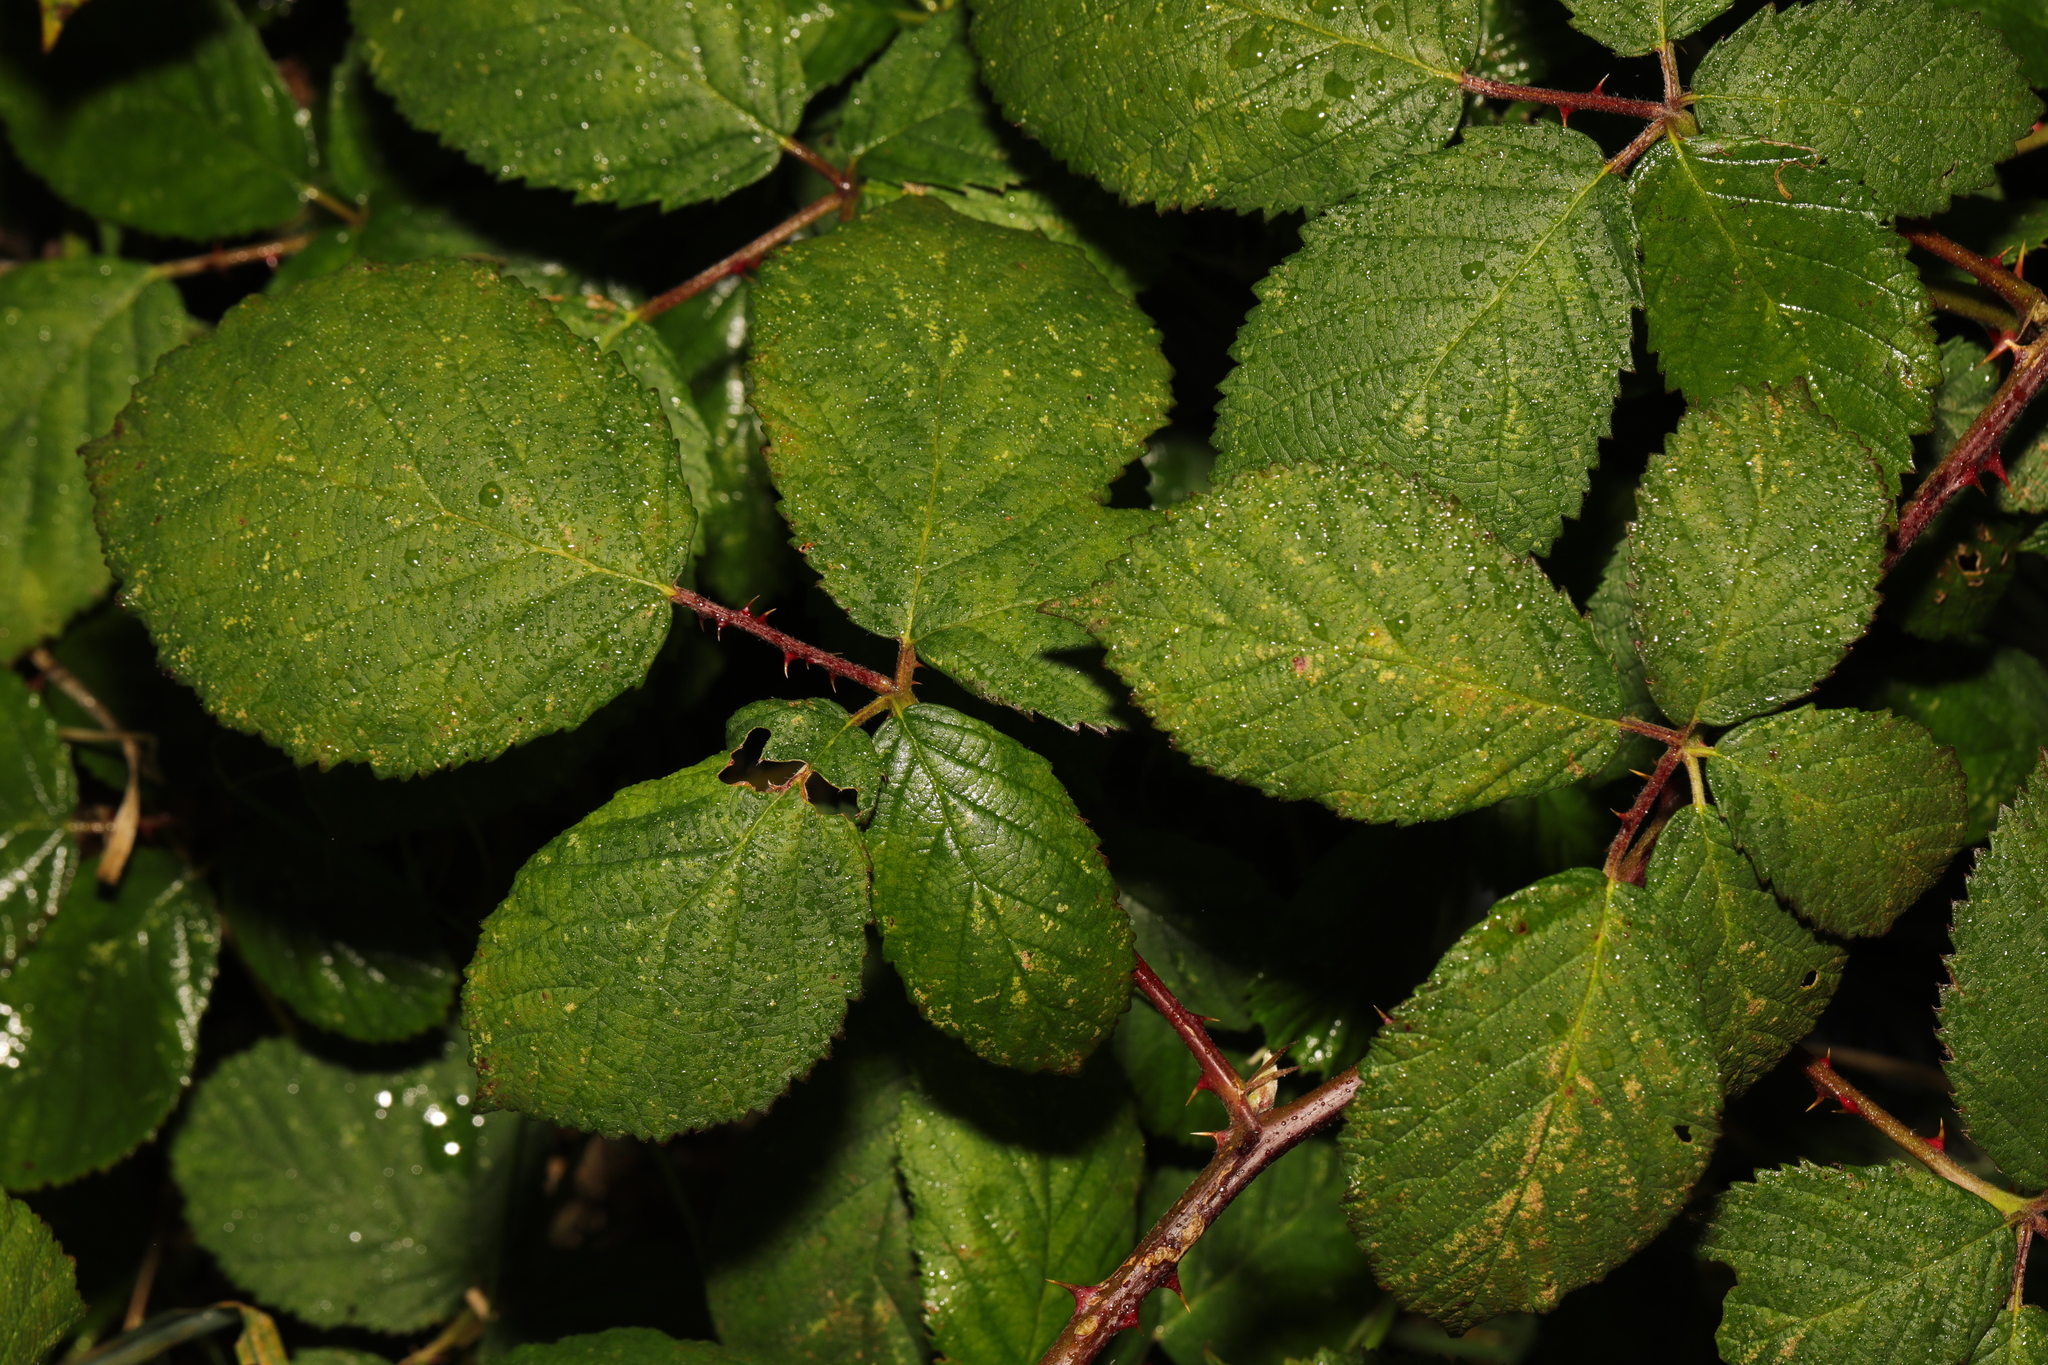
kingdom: Plantae
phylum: Tracheophyta
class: Magnoliopsida
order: Rosales
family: Rosaceae
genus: Rubus
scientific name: Rubus armeniacus
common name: Himalayan blackberry
